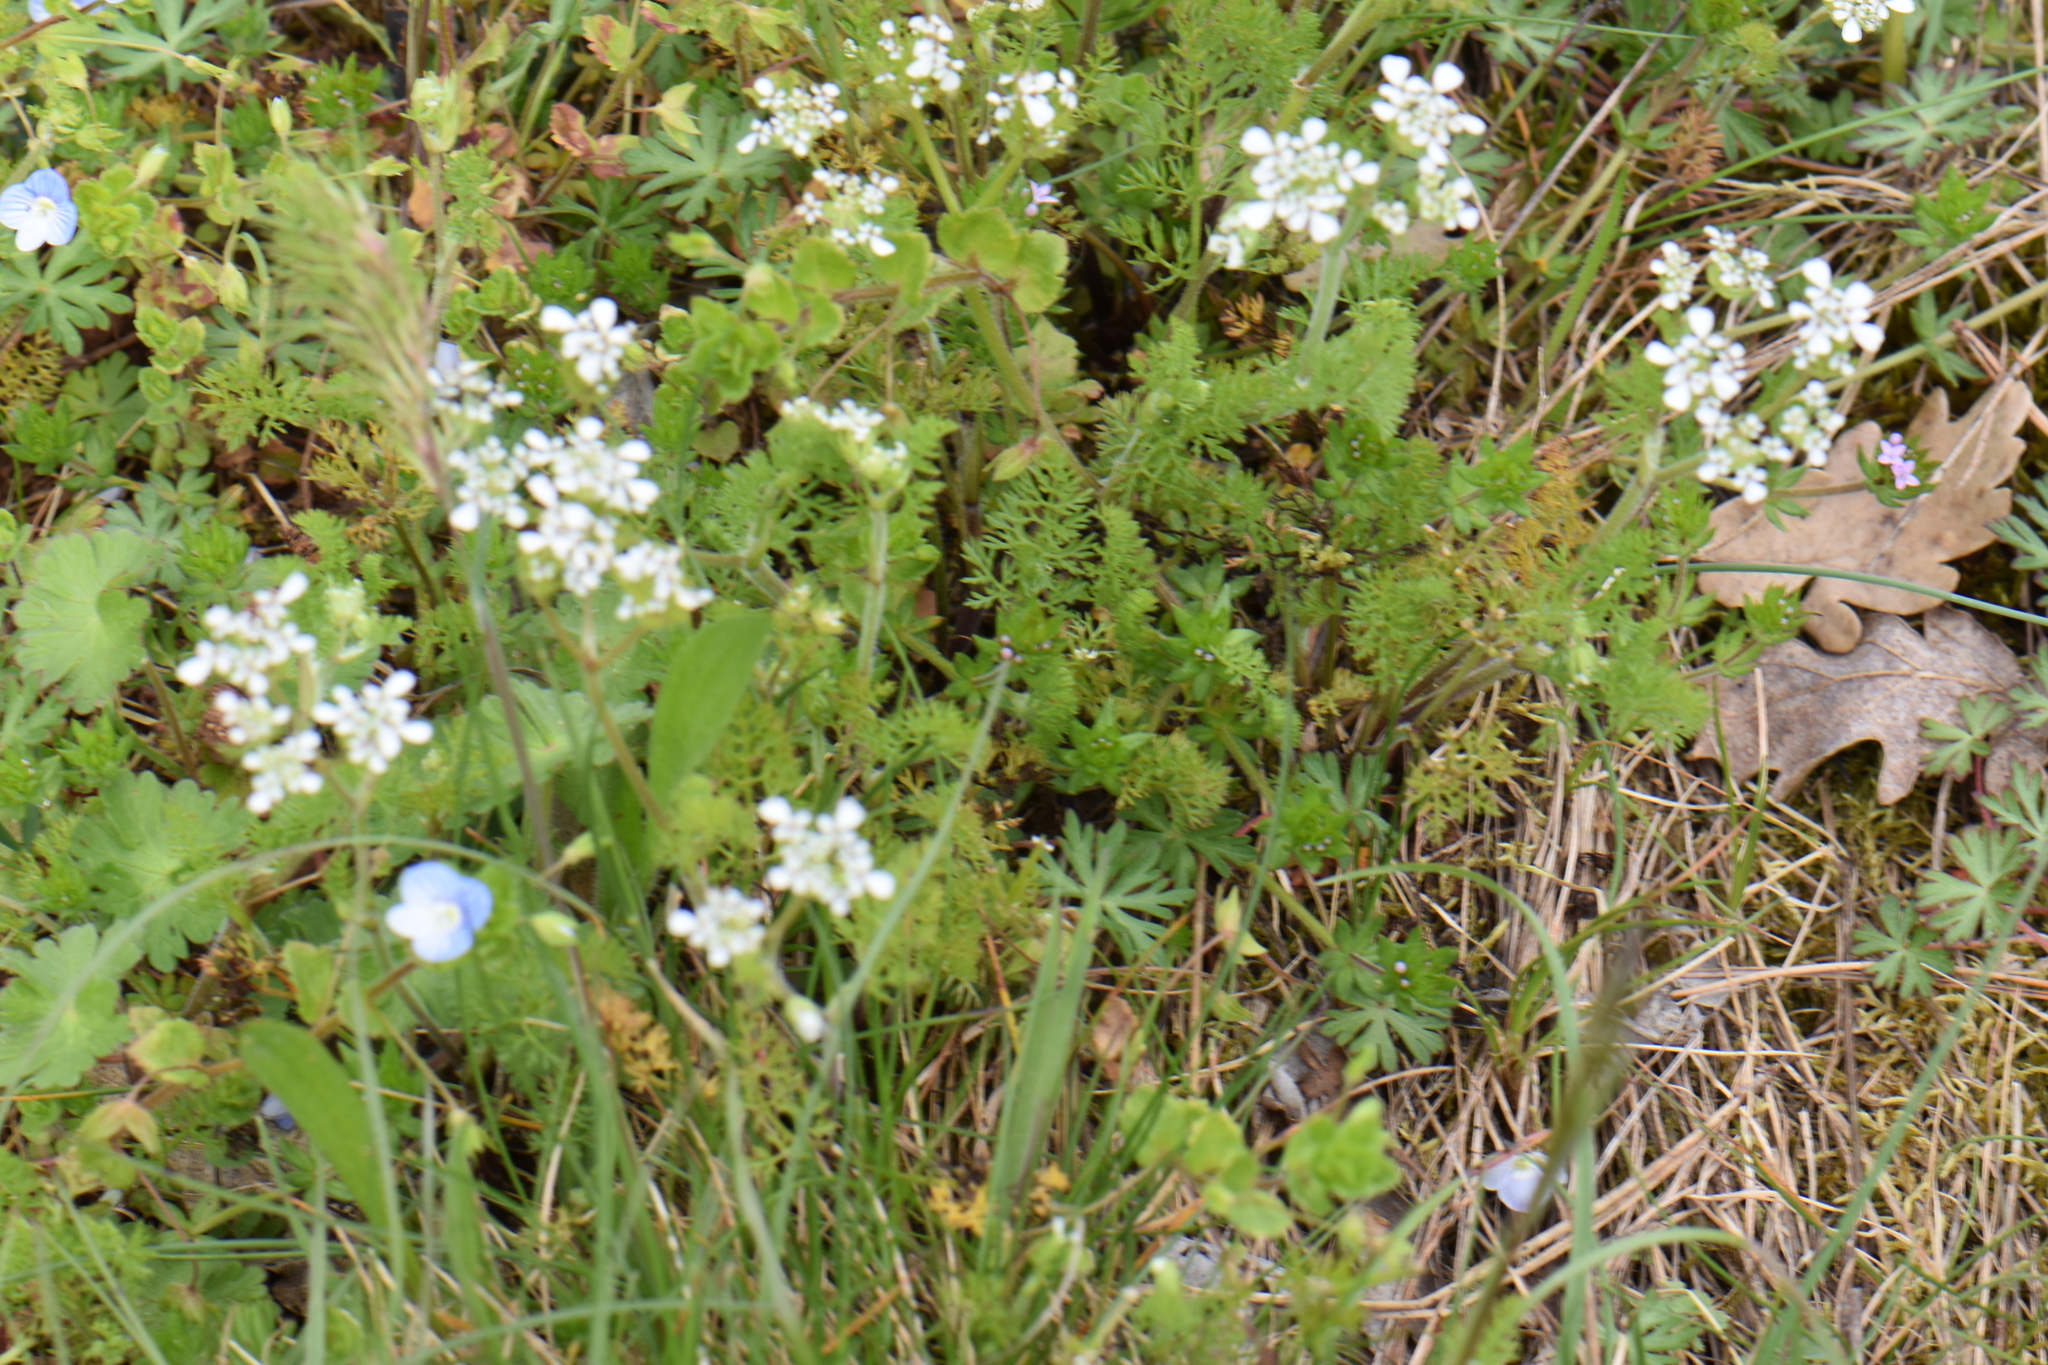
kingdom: Plantae
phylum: Tracheophyta
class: Magnoliopsida
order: Apiales
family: Apiaceae
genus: Scandix
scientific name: Scandix pecten-veneris
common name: Shepherd's-needle
